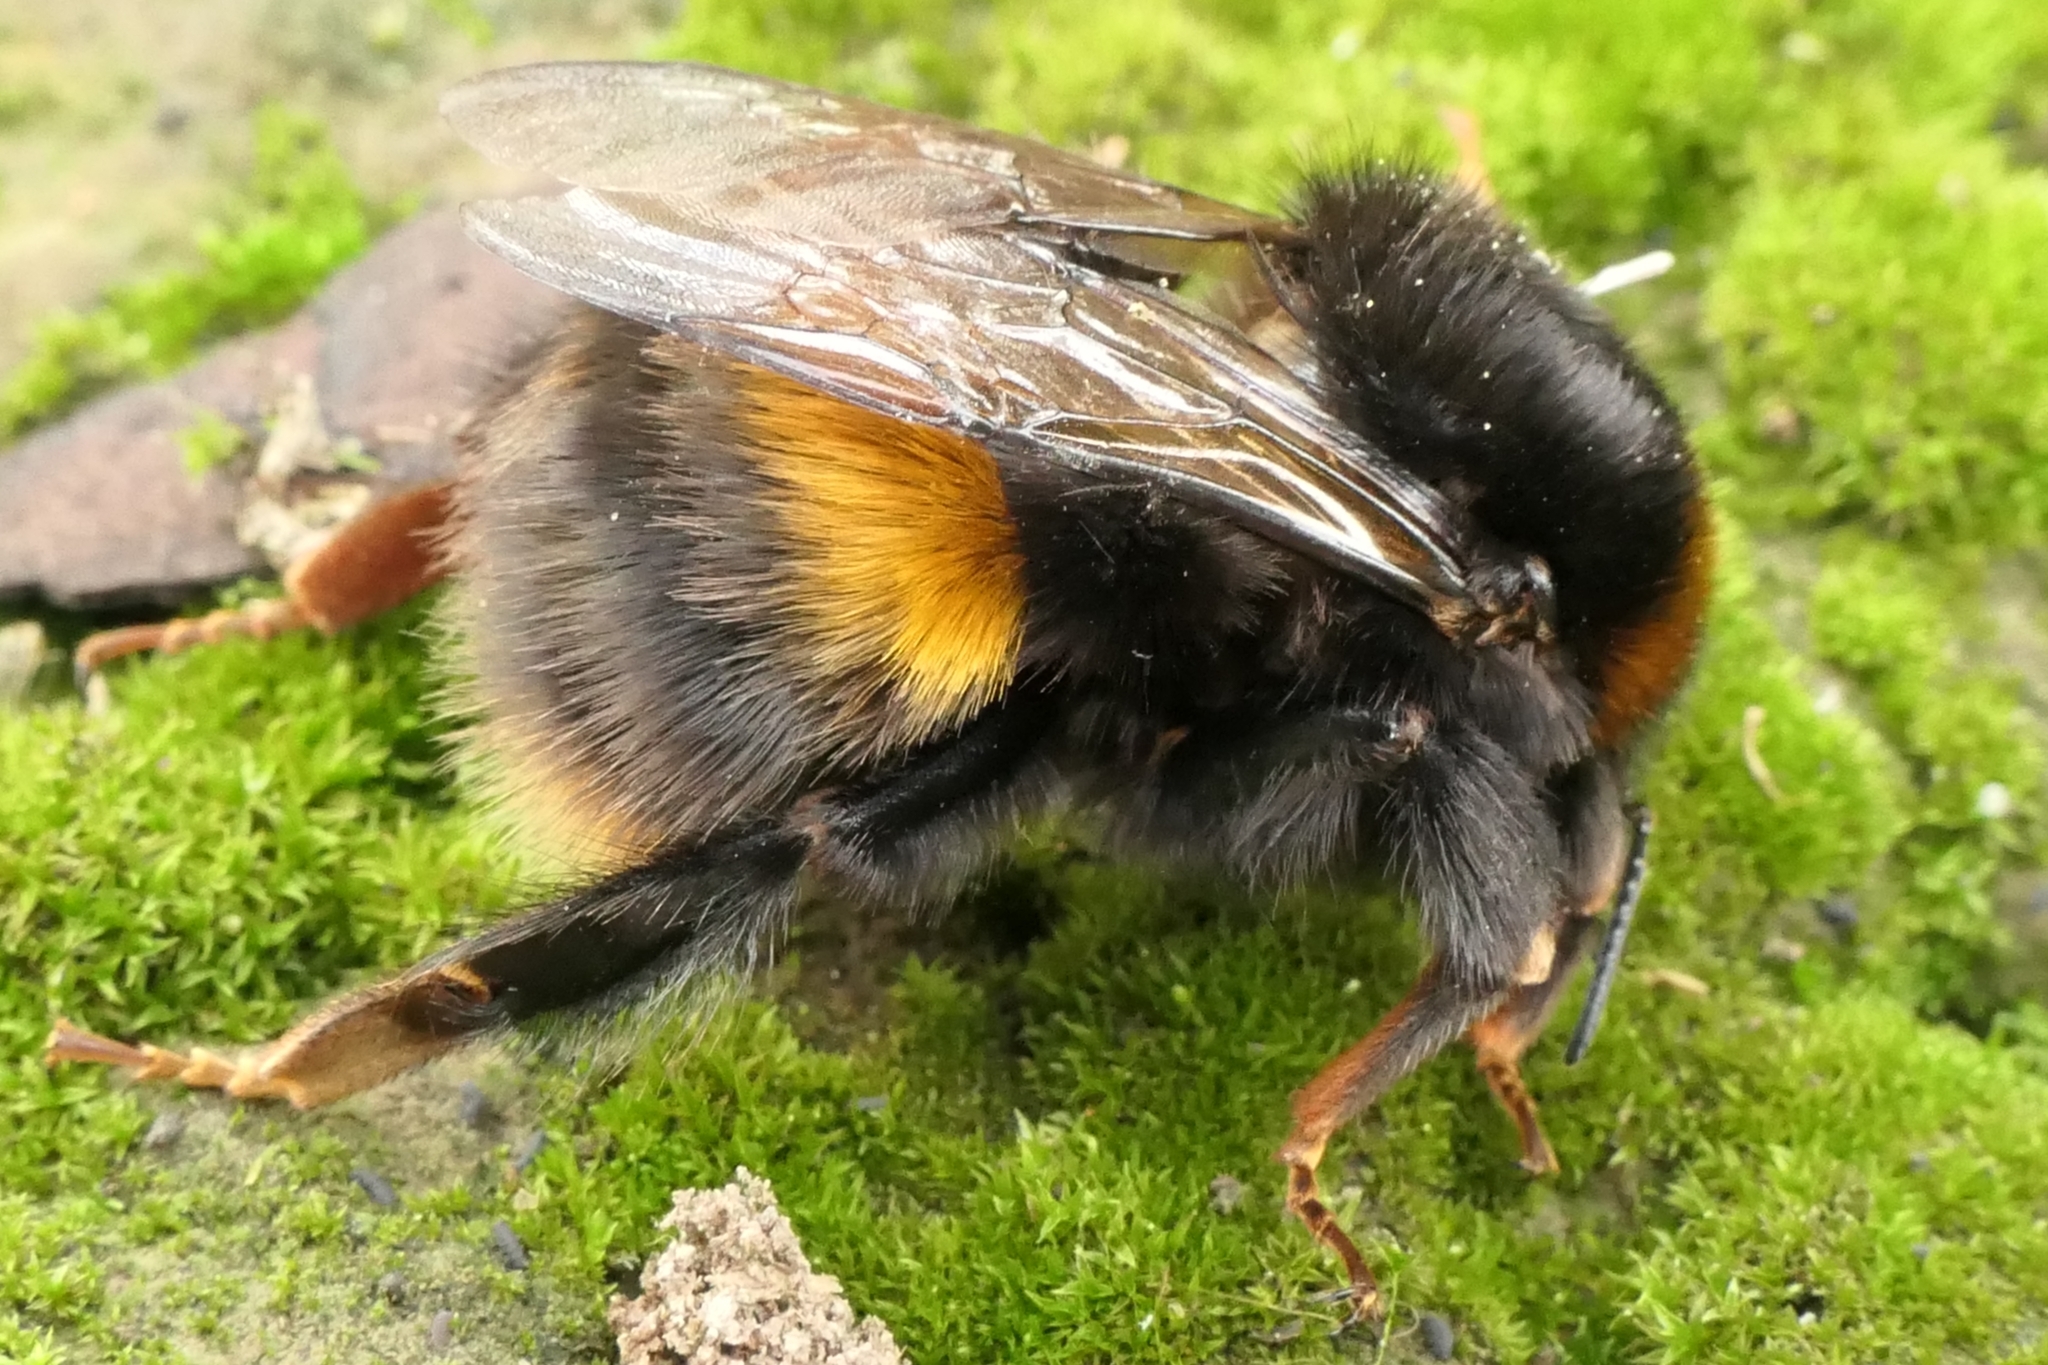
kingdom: Animalia
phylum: Arthropoda
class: Insecta
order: Hymenoptera
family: Apidae
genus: Bombus
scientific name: Bombus terrestris
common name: Buff-tailed bumblebee
